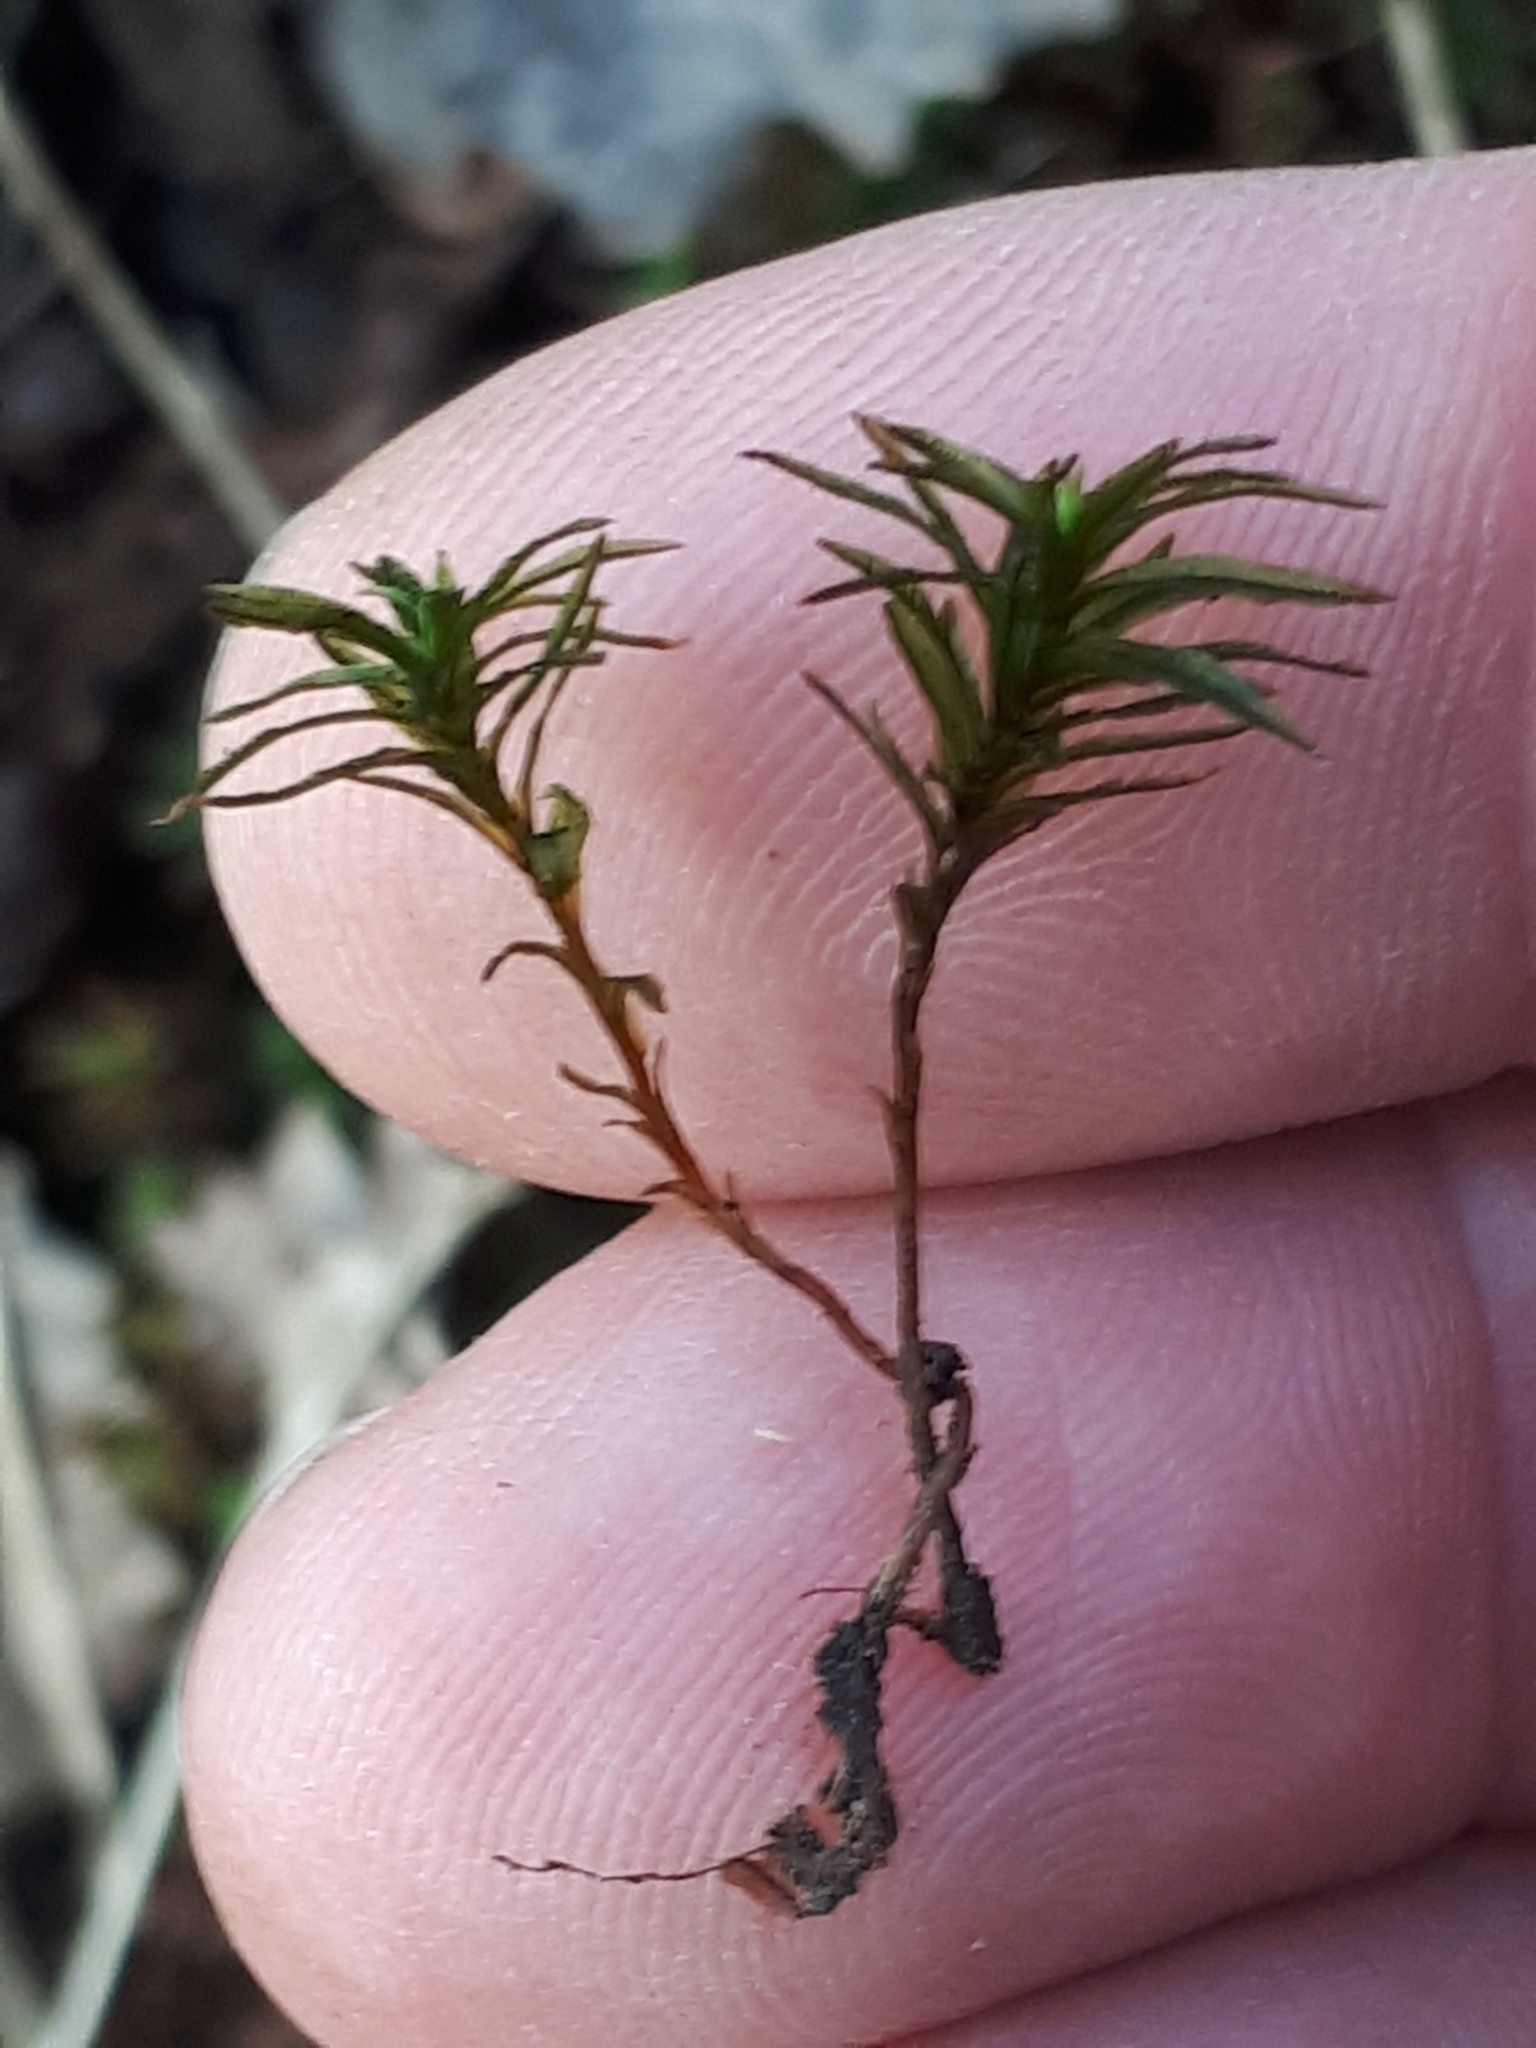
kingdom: Plantae
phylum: Bryophyta
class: Polytrichopsida
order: Polytrichales
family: Polytrichaceae
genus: Atrichum
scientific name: Atrichum undulatum
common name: Common smoothcap
